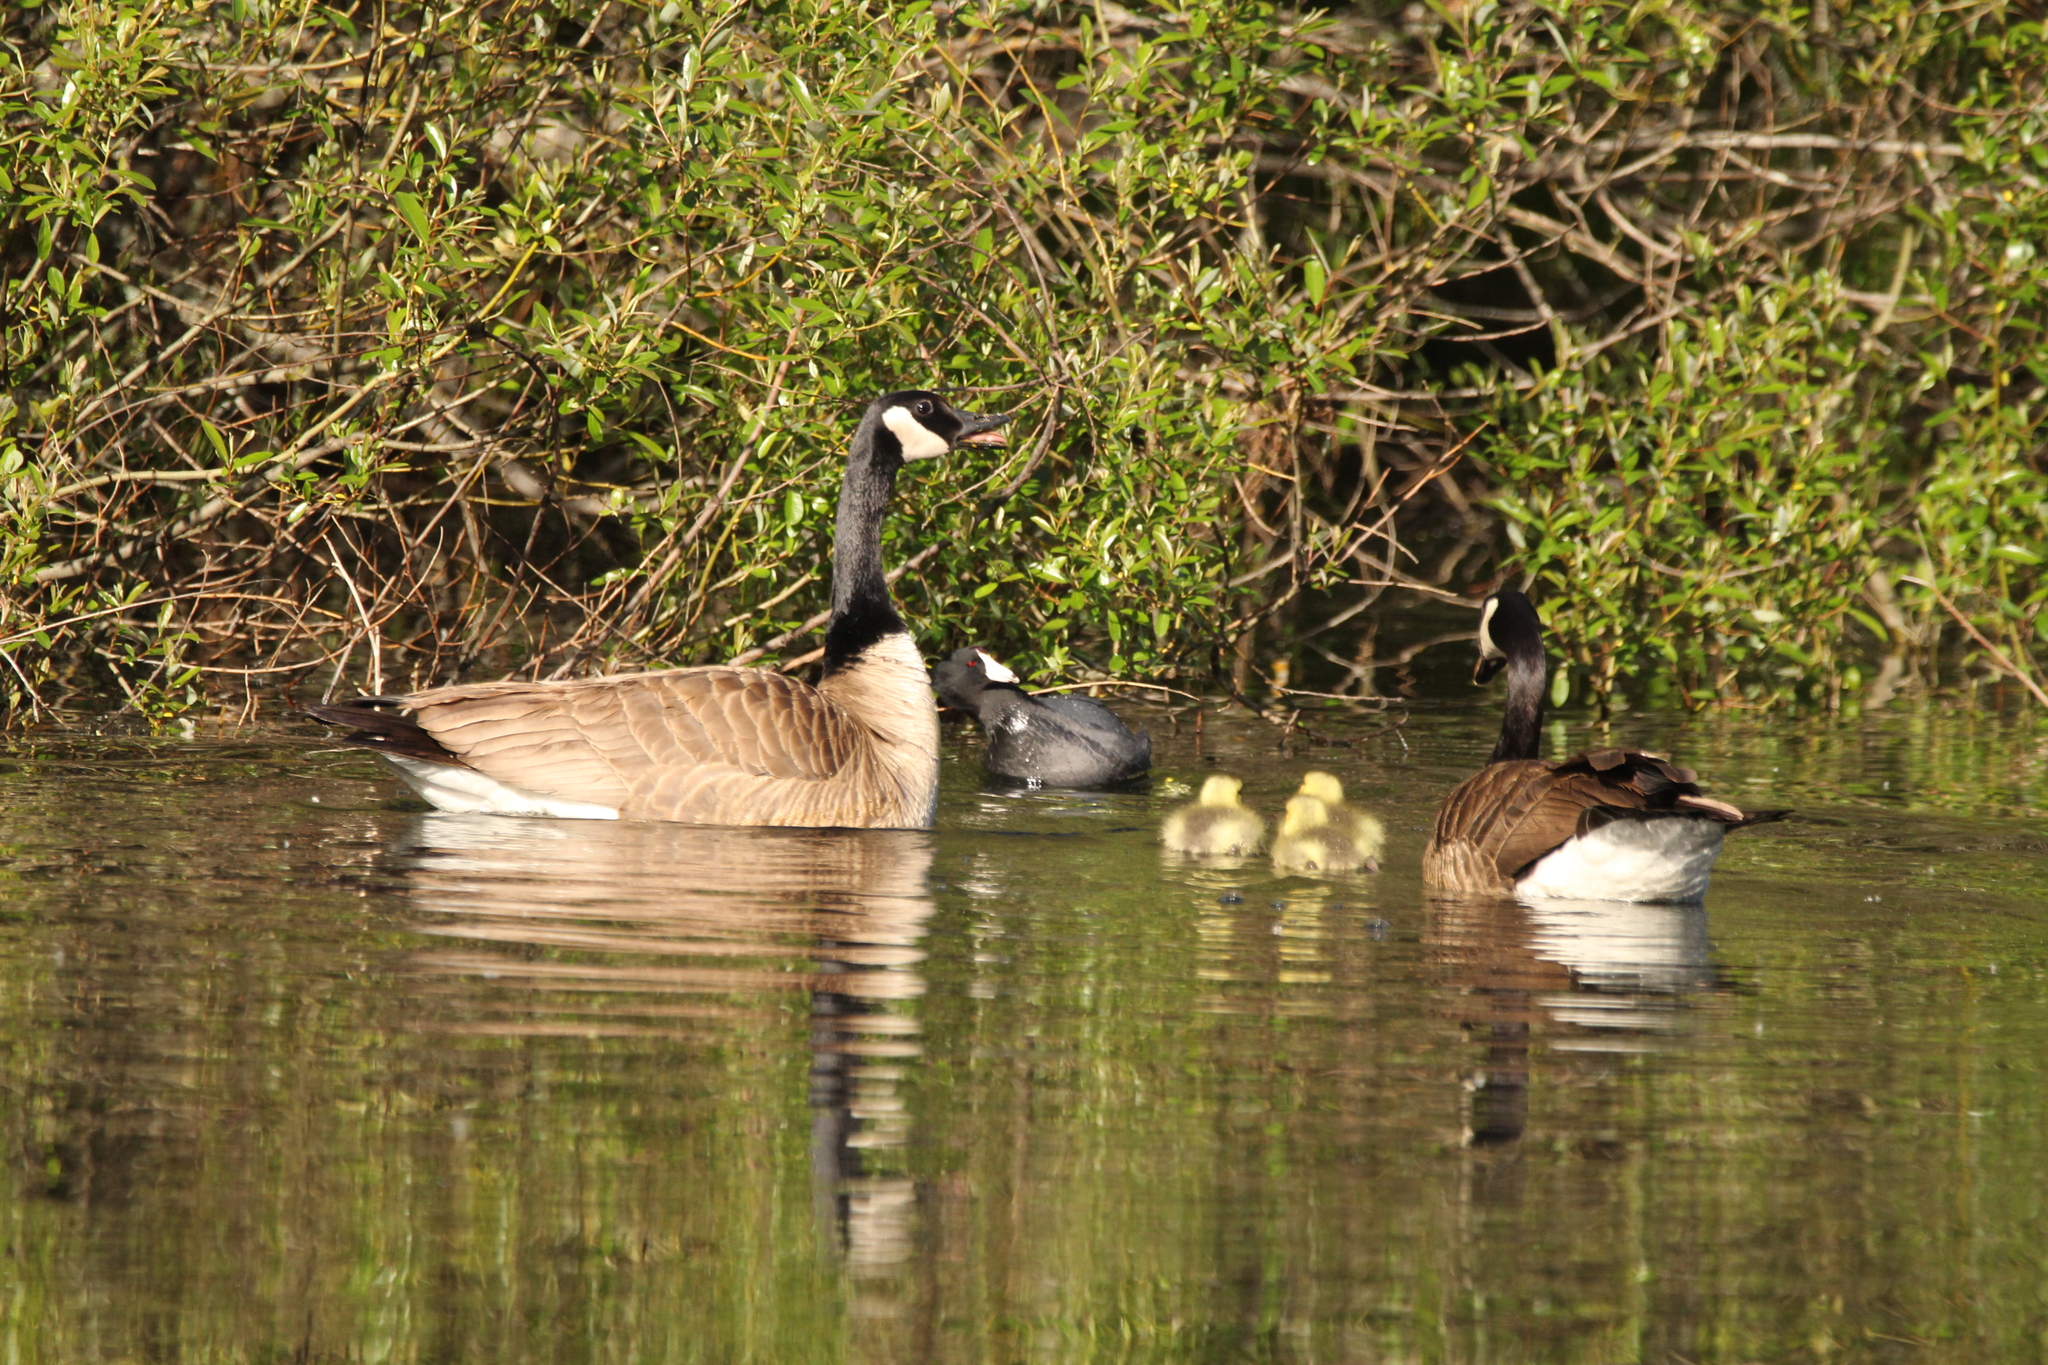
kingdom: Animalia
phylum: Chordata
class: Aves
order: Gruiformes
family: Rallidae
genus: Fulica
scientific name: Fulica americana
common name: American coot
